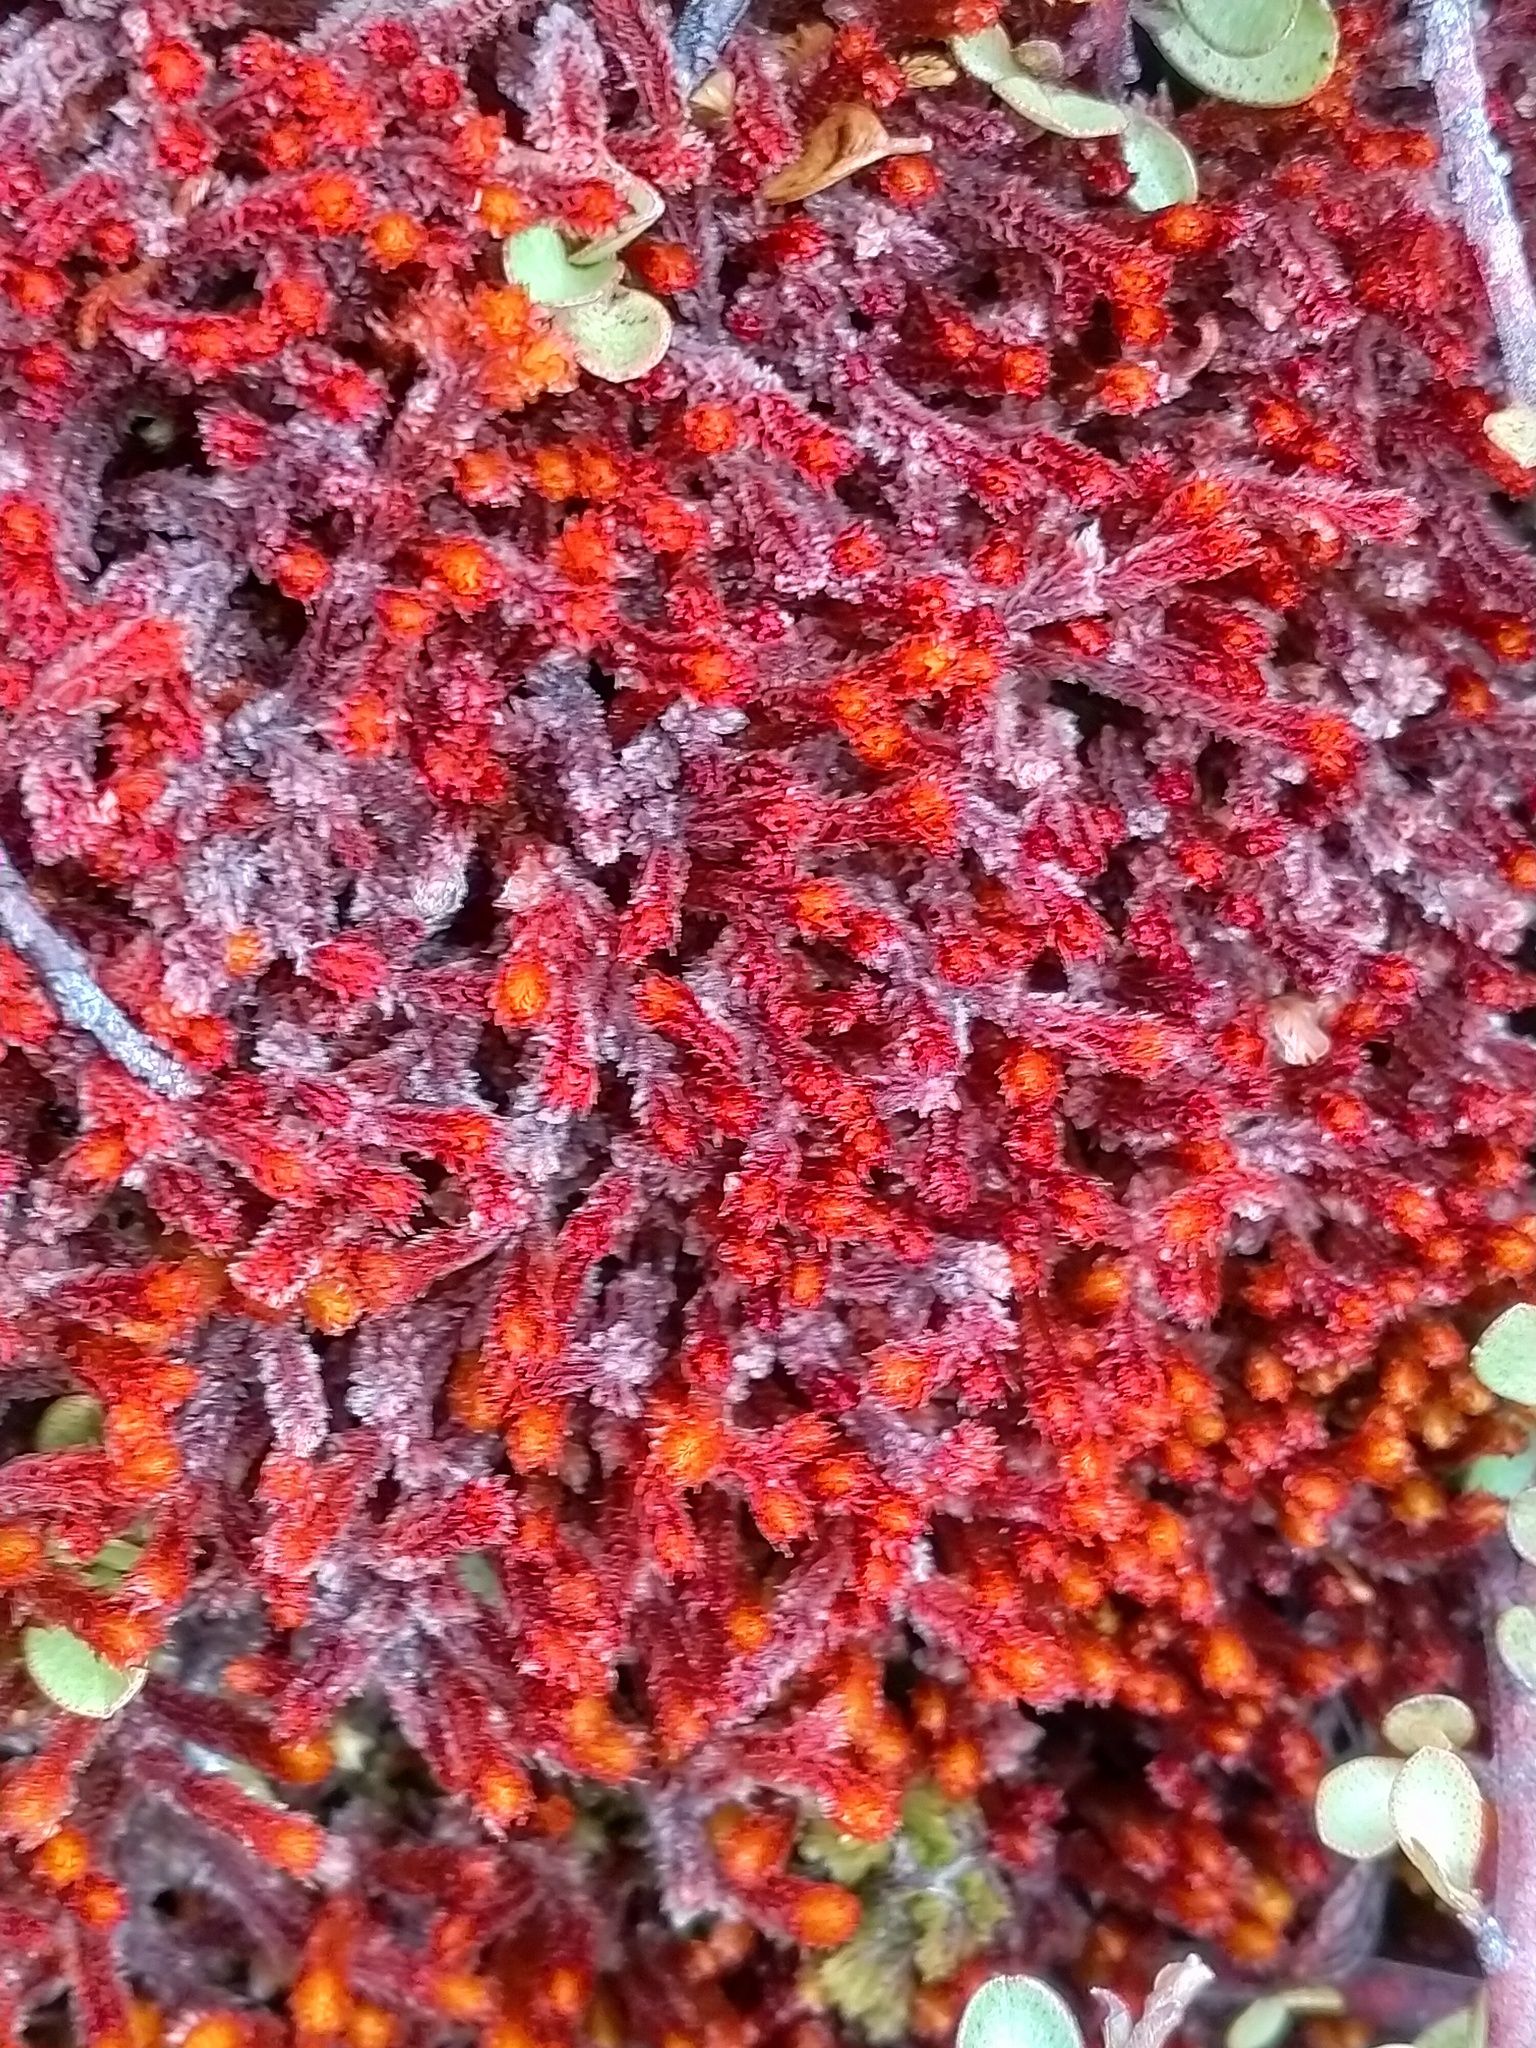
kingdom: Plantae
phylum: Marchantiophyta
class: Jungermanniopsida
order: Jungermanniales
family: Anastrophyllaceae
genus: Chandonanthus
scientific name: Chandonanthus squarrosus
